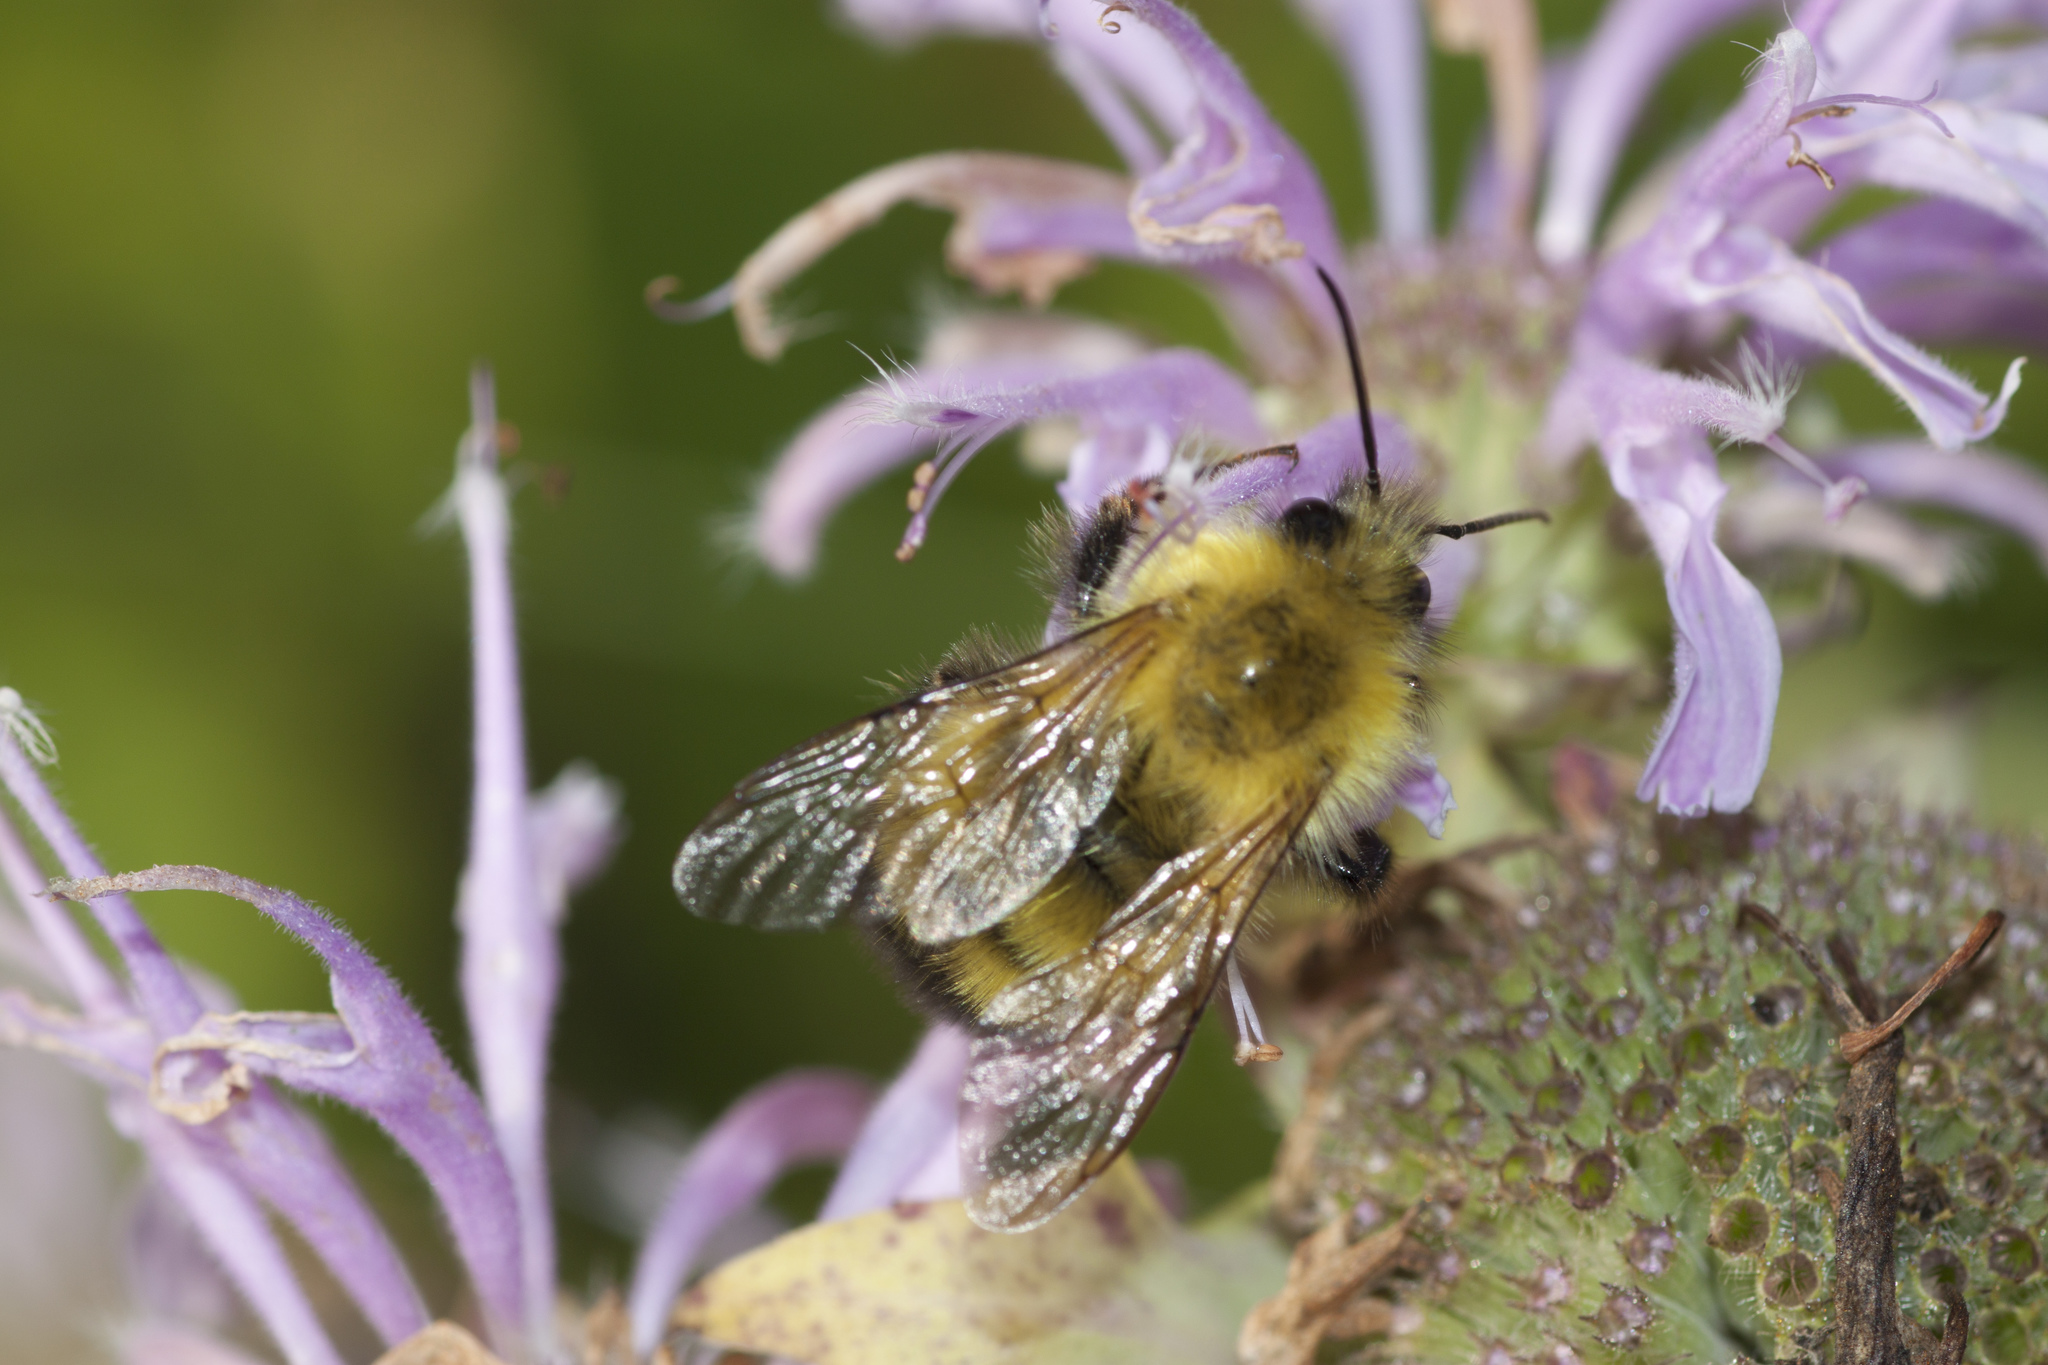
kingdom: Animalia
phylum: Arthropoda
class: Insecta
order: Hymenoptera
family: Apidae
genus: Bombus
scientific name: Bombus perplexus
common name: Confusing bumble bee
